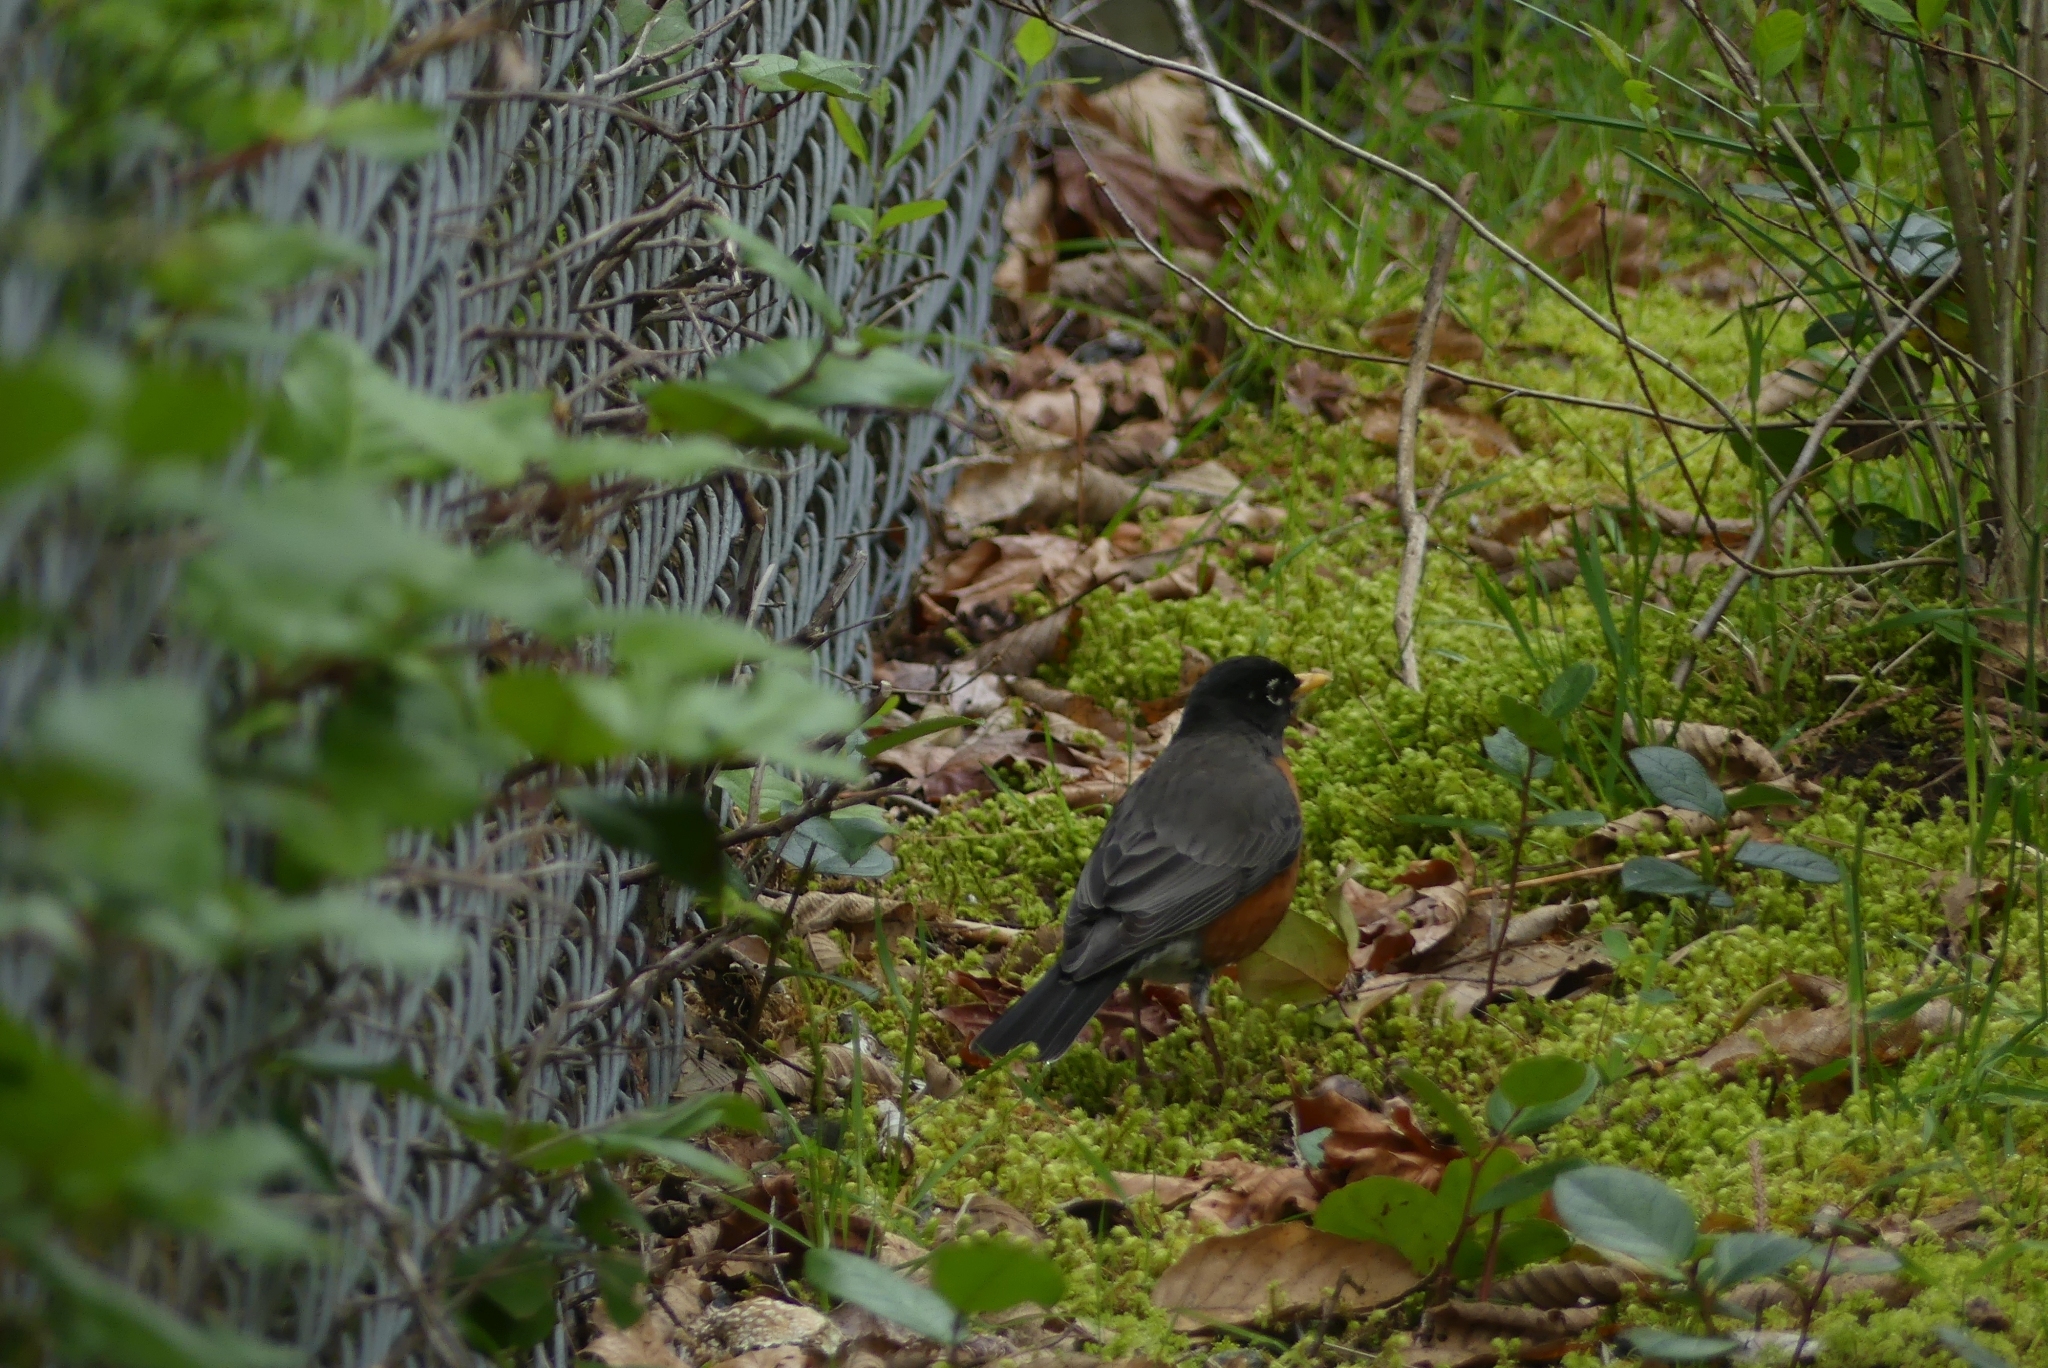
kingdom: Animalia
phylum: Chordata
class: Aves
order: Passeriformes
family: Turdidae
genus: Turdus
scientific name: Turdus migratorius
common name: American robin
